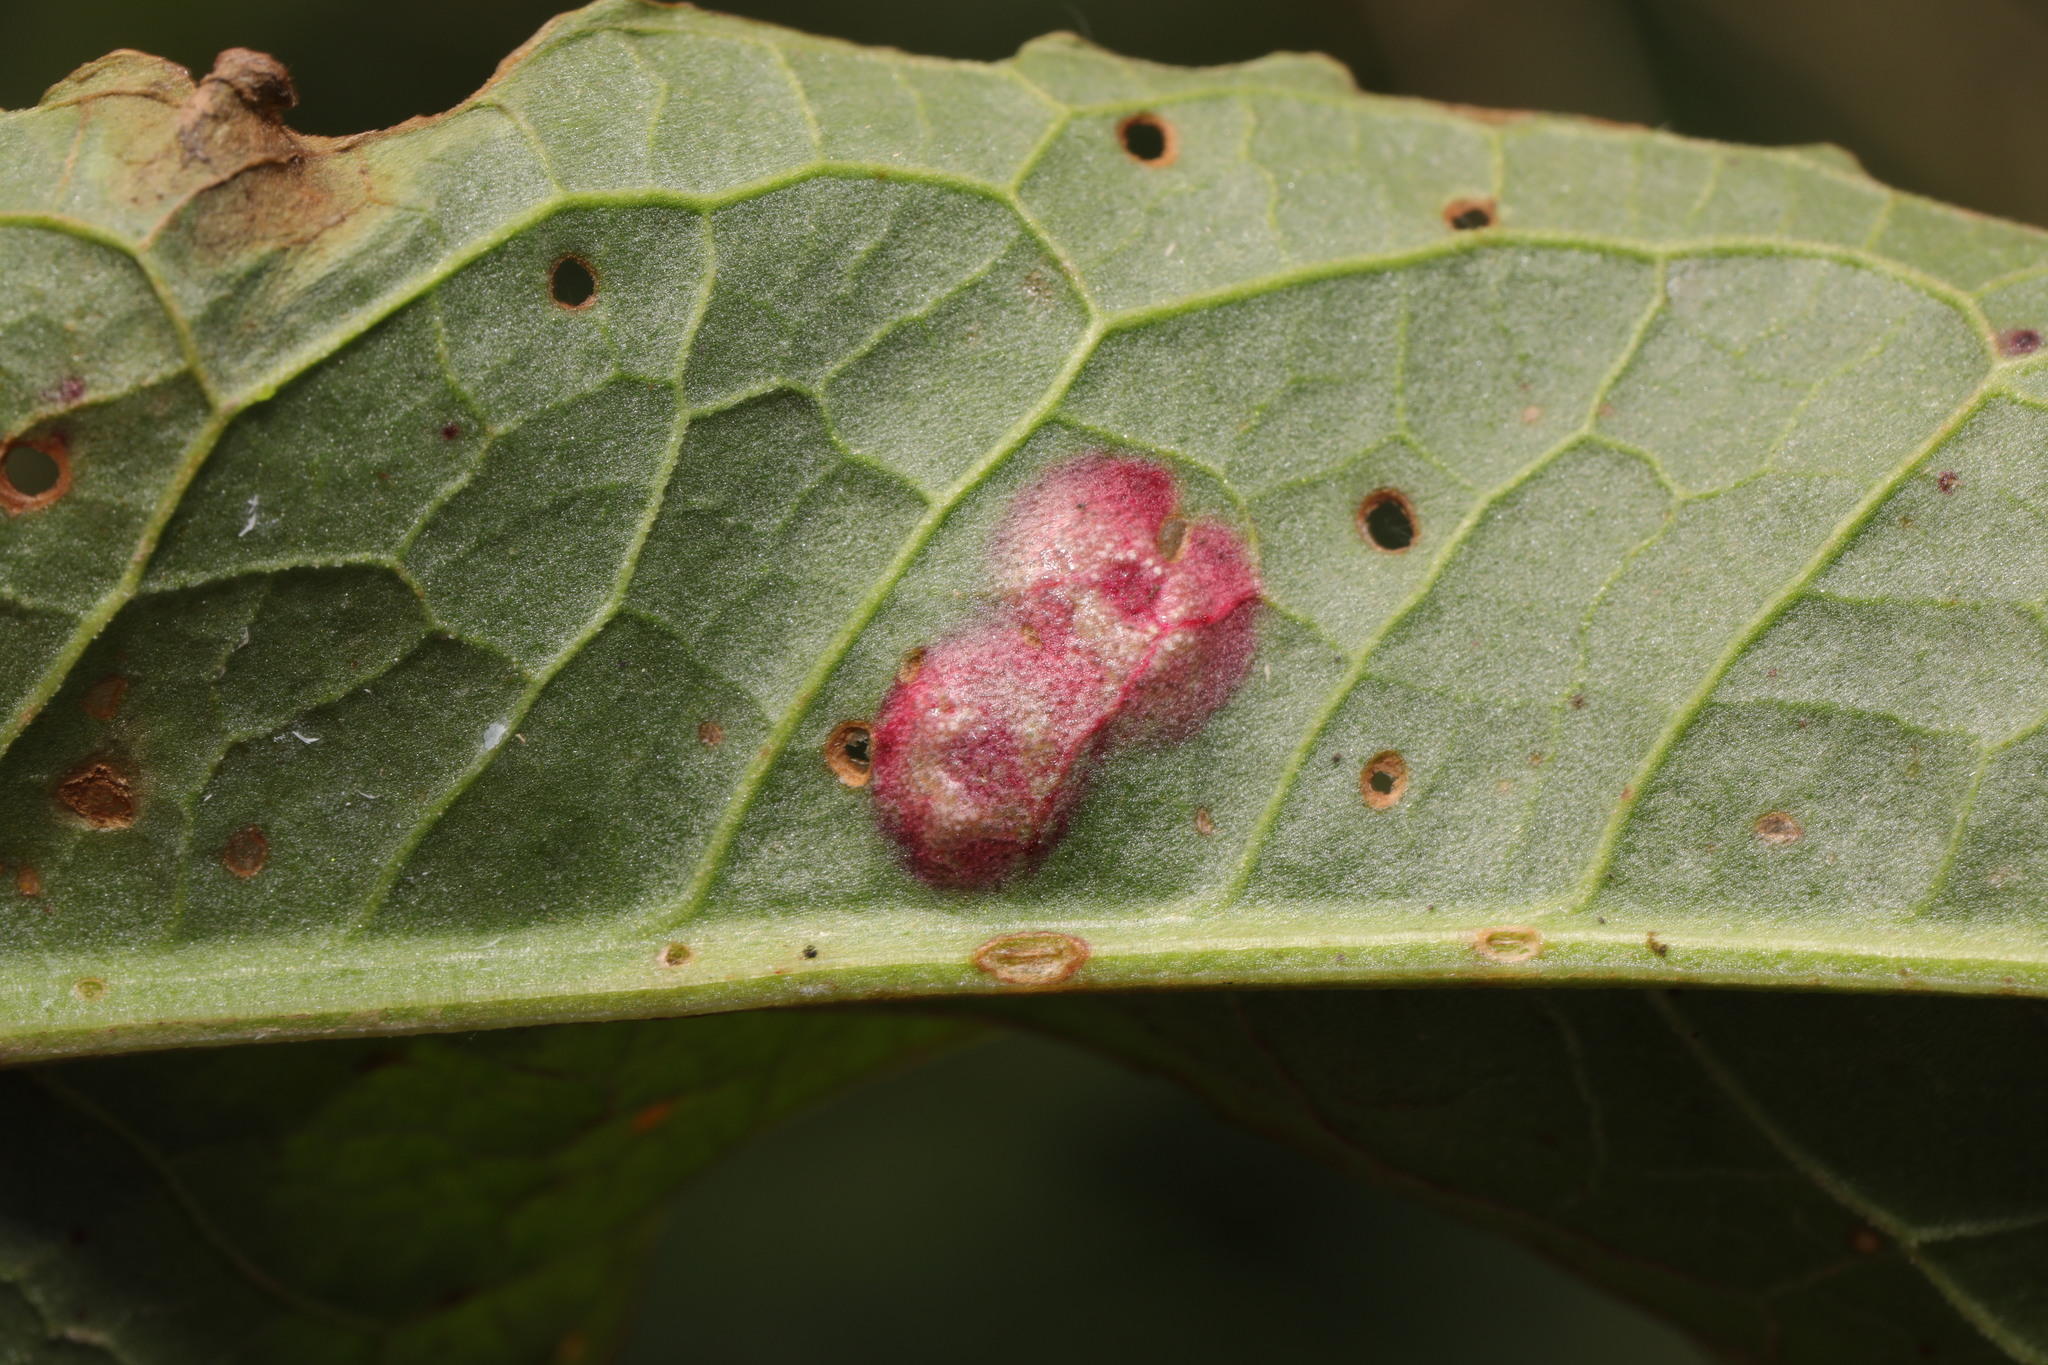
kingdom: Fungi
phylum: Basidiomycota
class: Pucciniomycetes
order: Pucciniales
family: Pucciniaceae
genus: Puccinia
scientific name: Puccinia phragmitis
